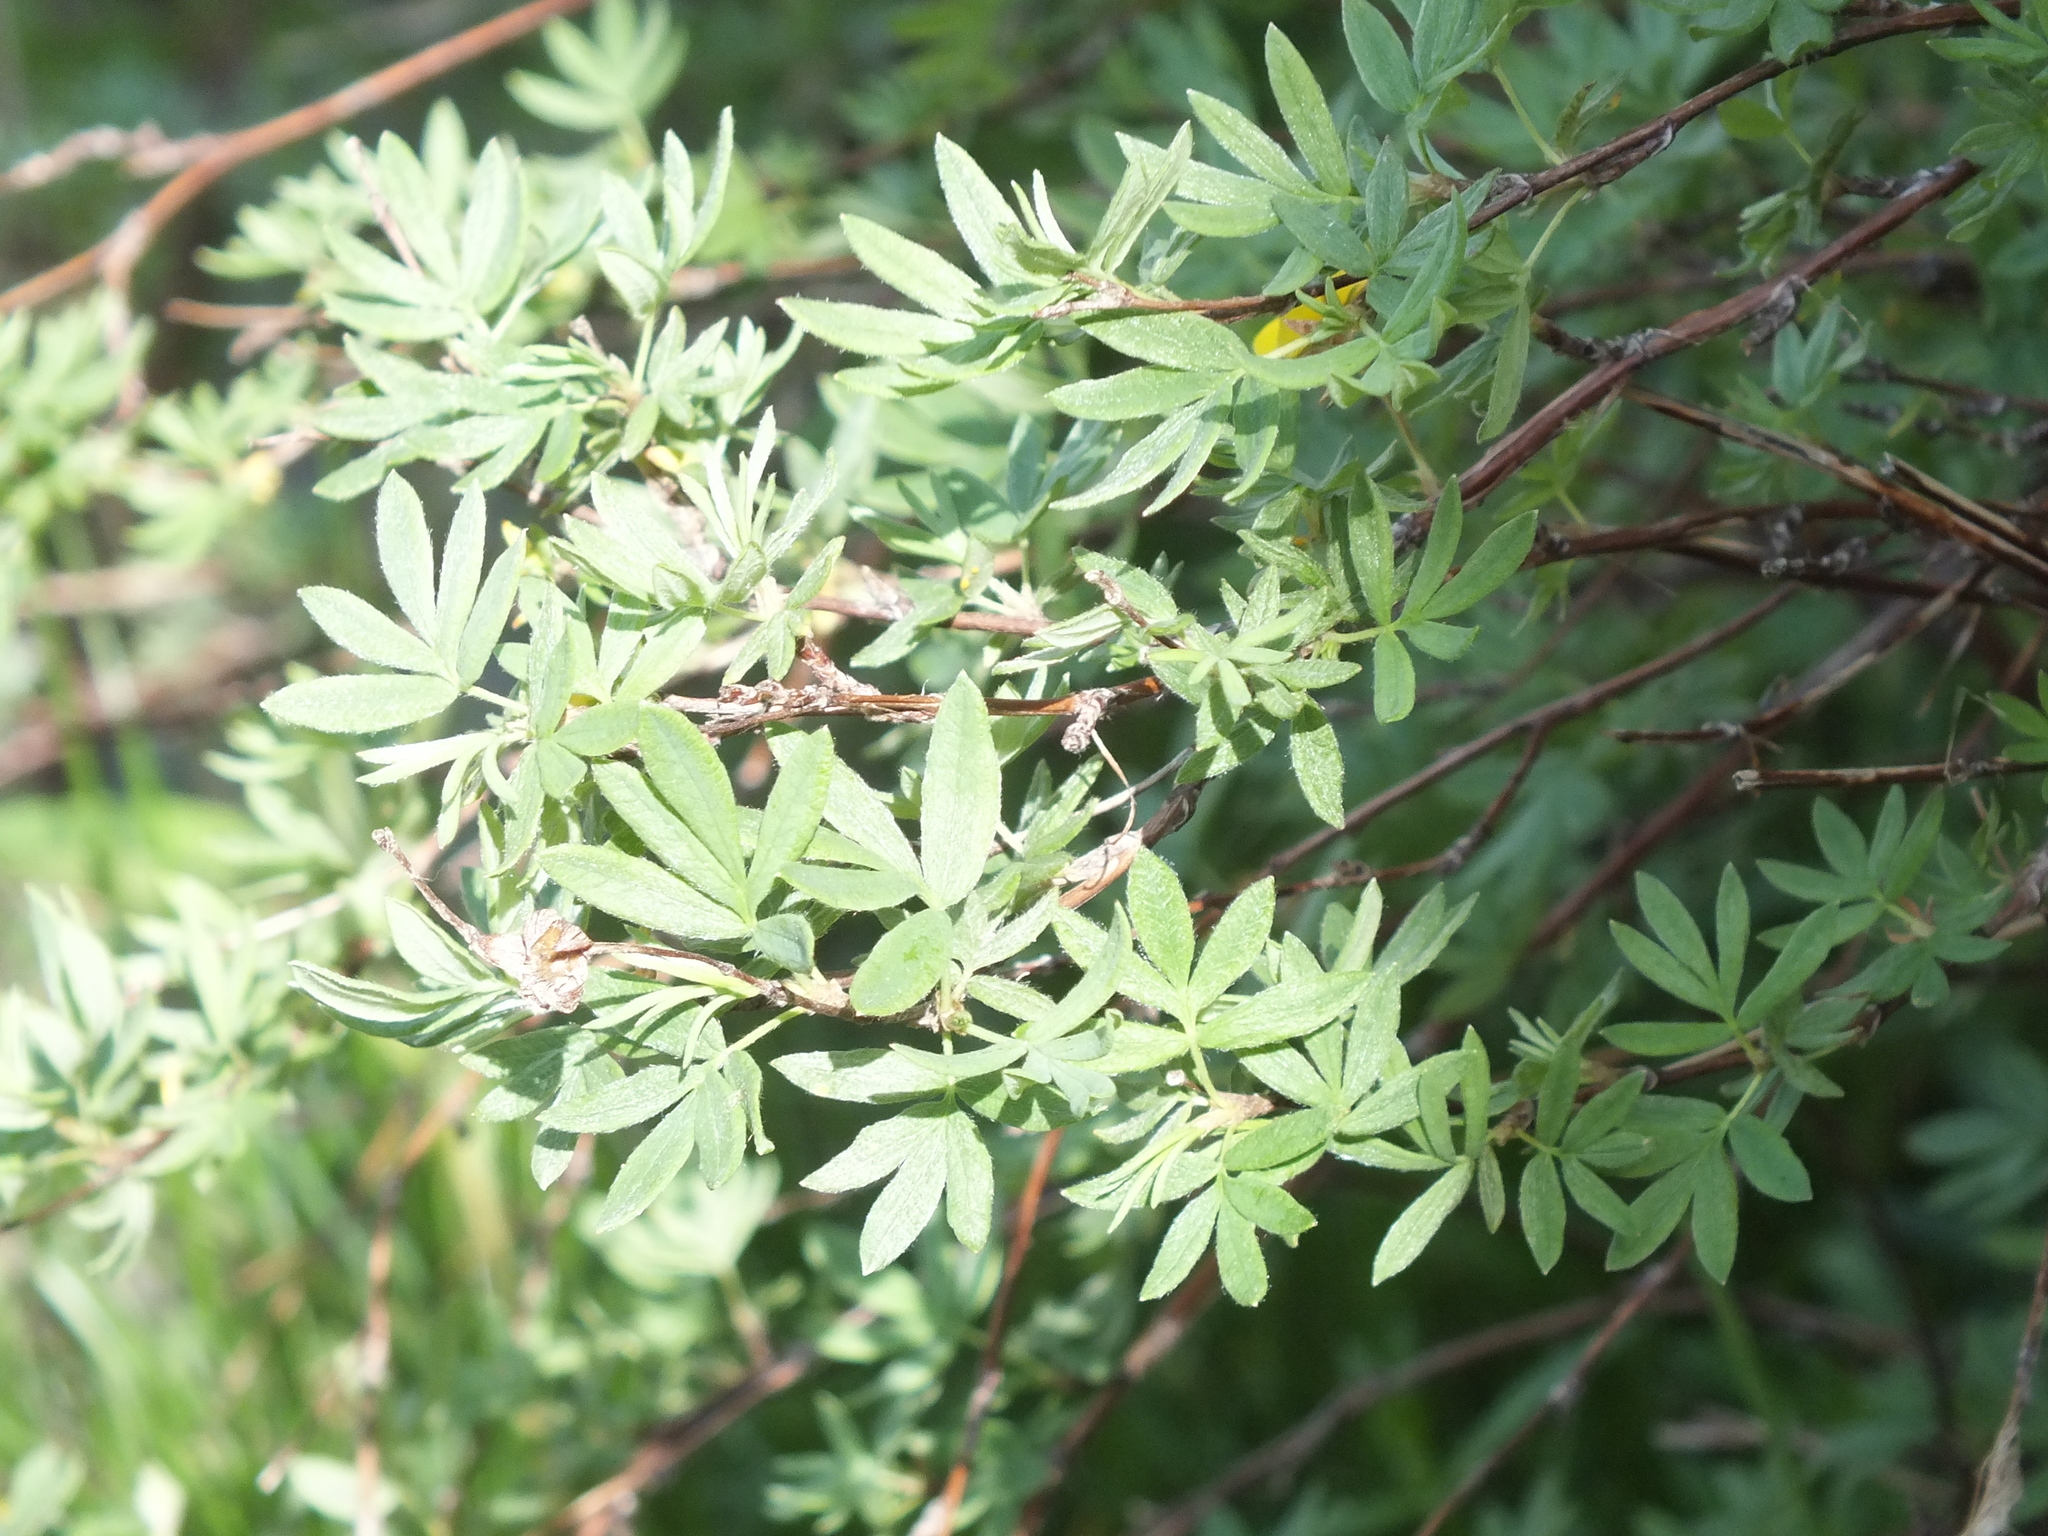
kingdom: Plantae
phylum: Tracheophyta
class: Magnoliopsida
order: Rosales
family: Rosaceae
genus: Dasiphora
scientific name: Dasiphora fruticosa
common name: Shrubby cinquefoil
